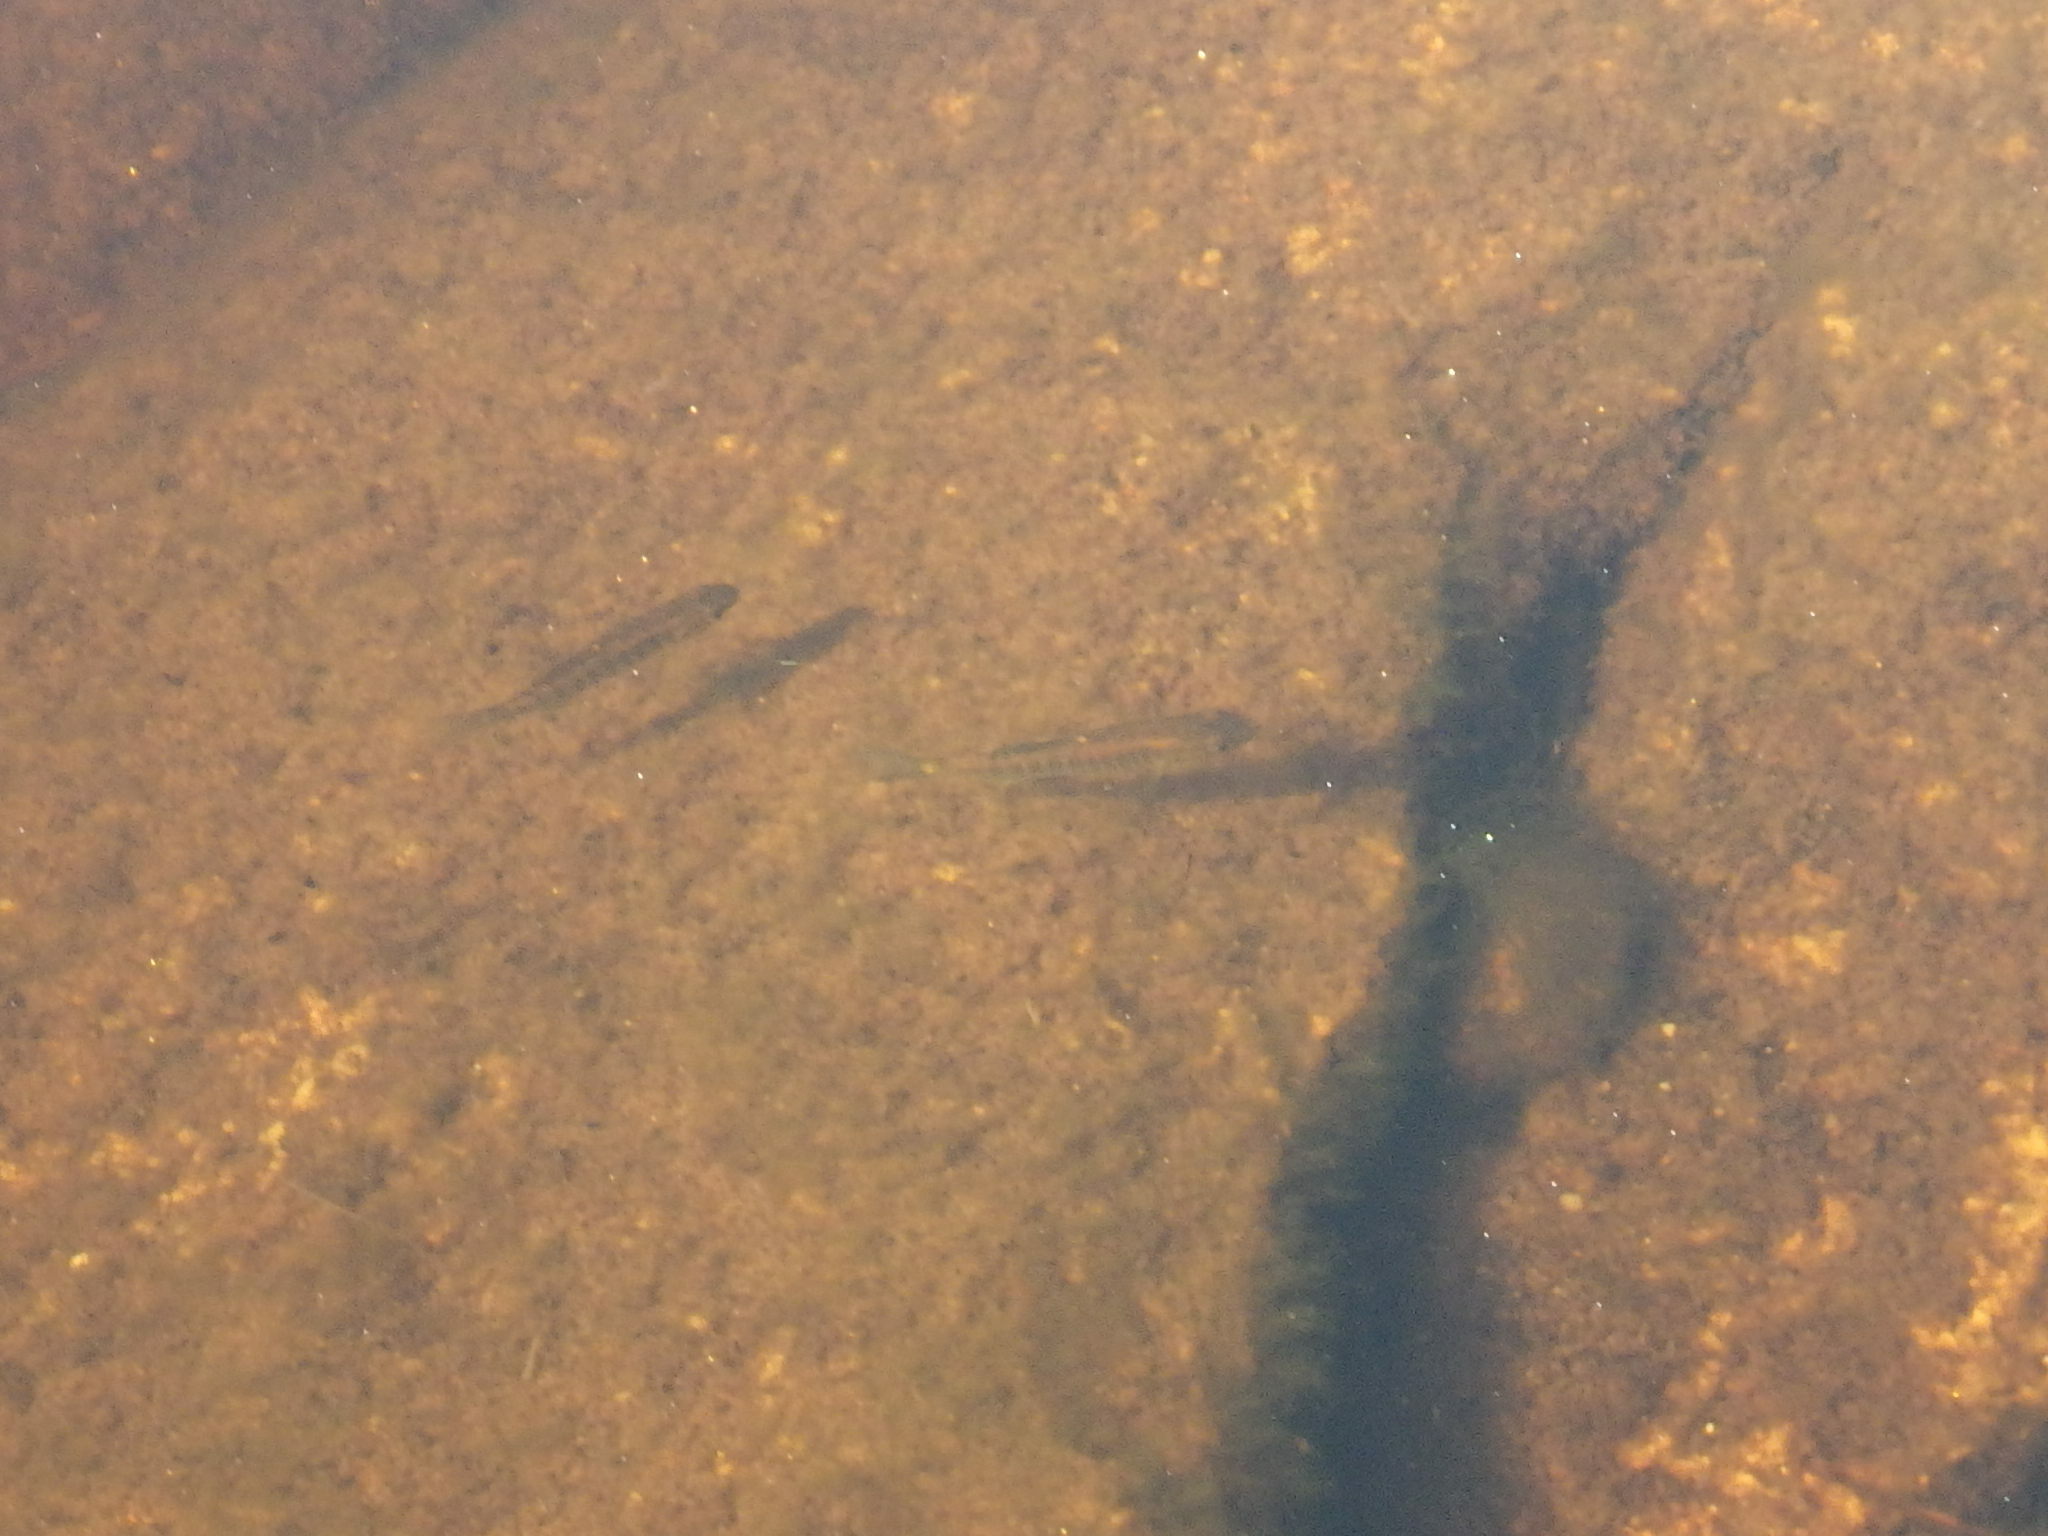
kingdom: Animalia
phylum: Chordata
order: Cyprinodontiformes
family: Fundulidae
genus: Fundulus
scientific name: Fundulus diaphanus
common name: Banded killifish
